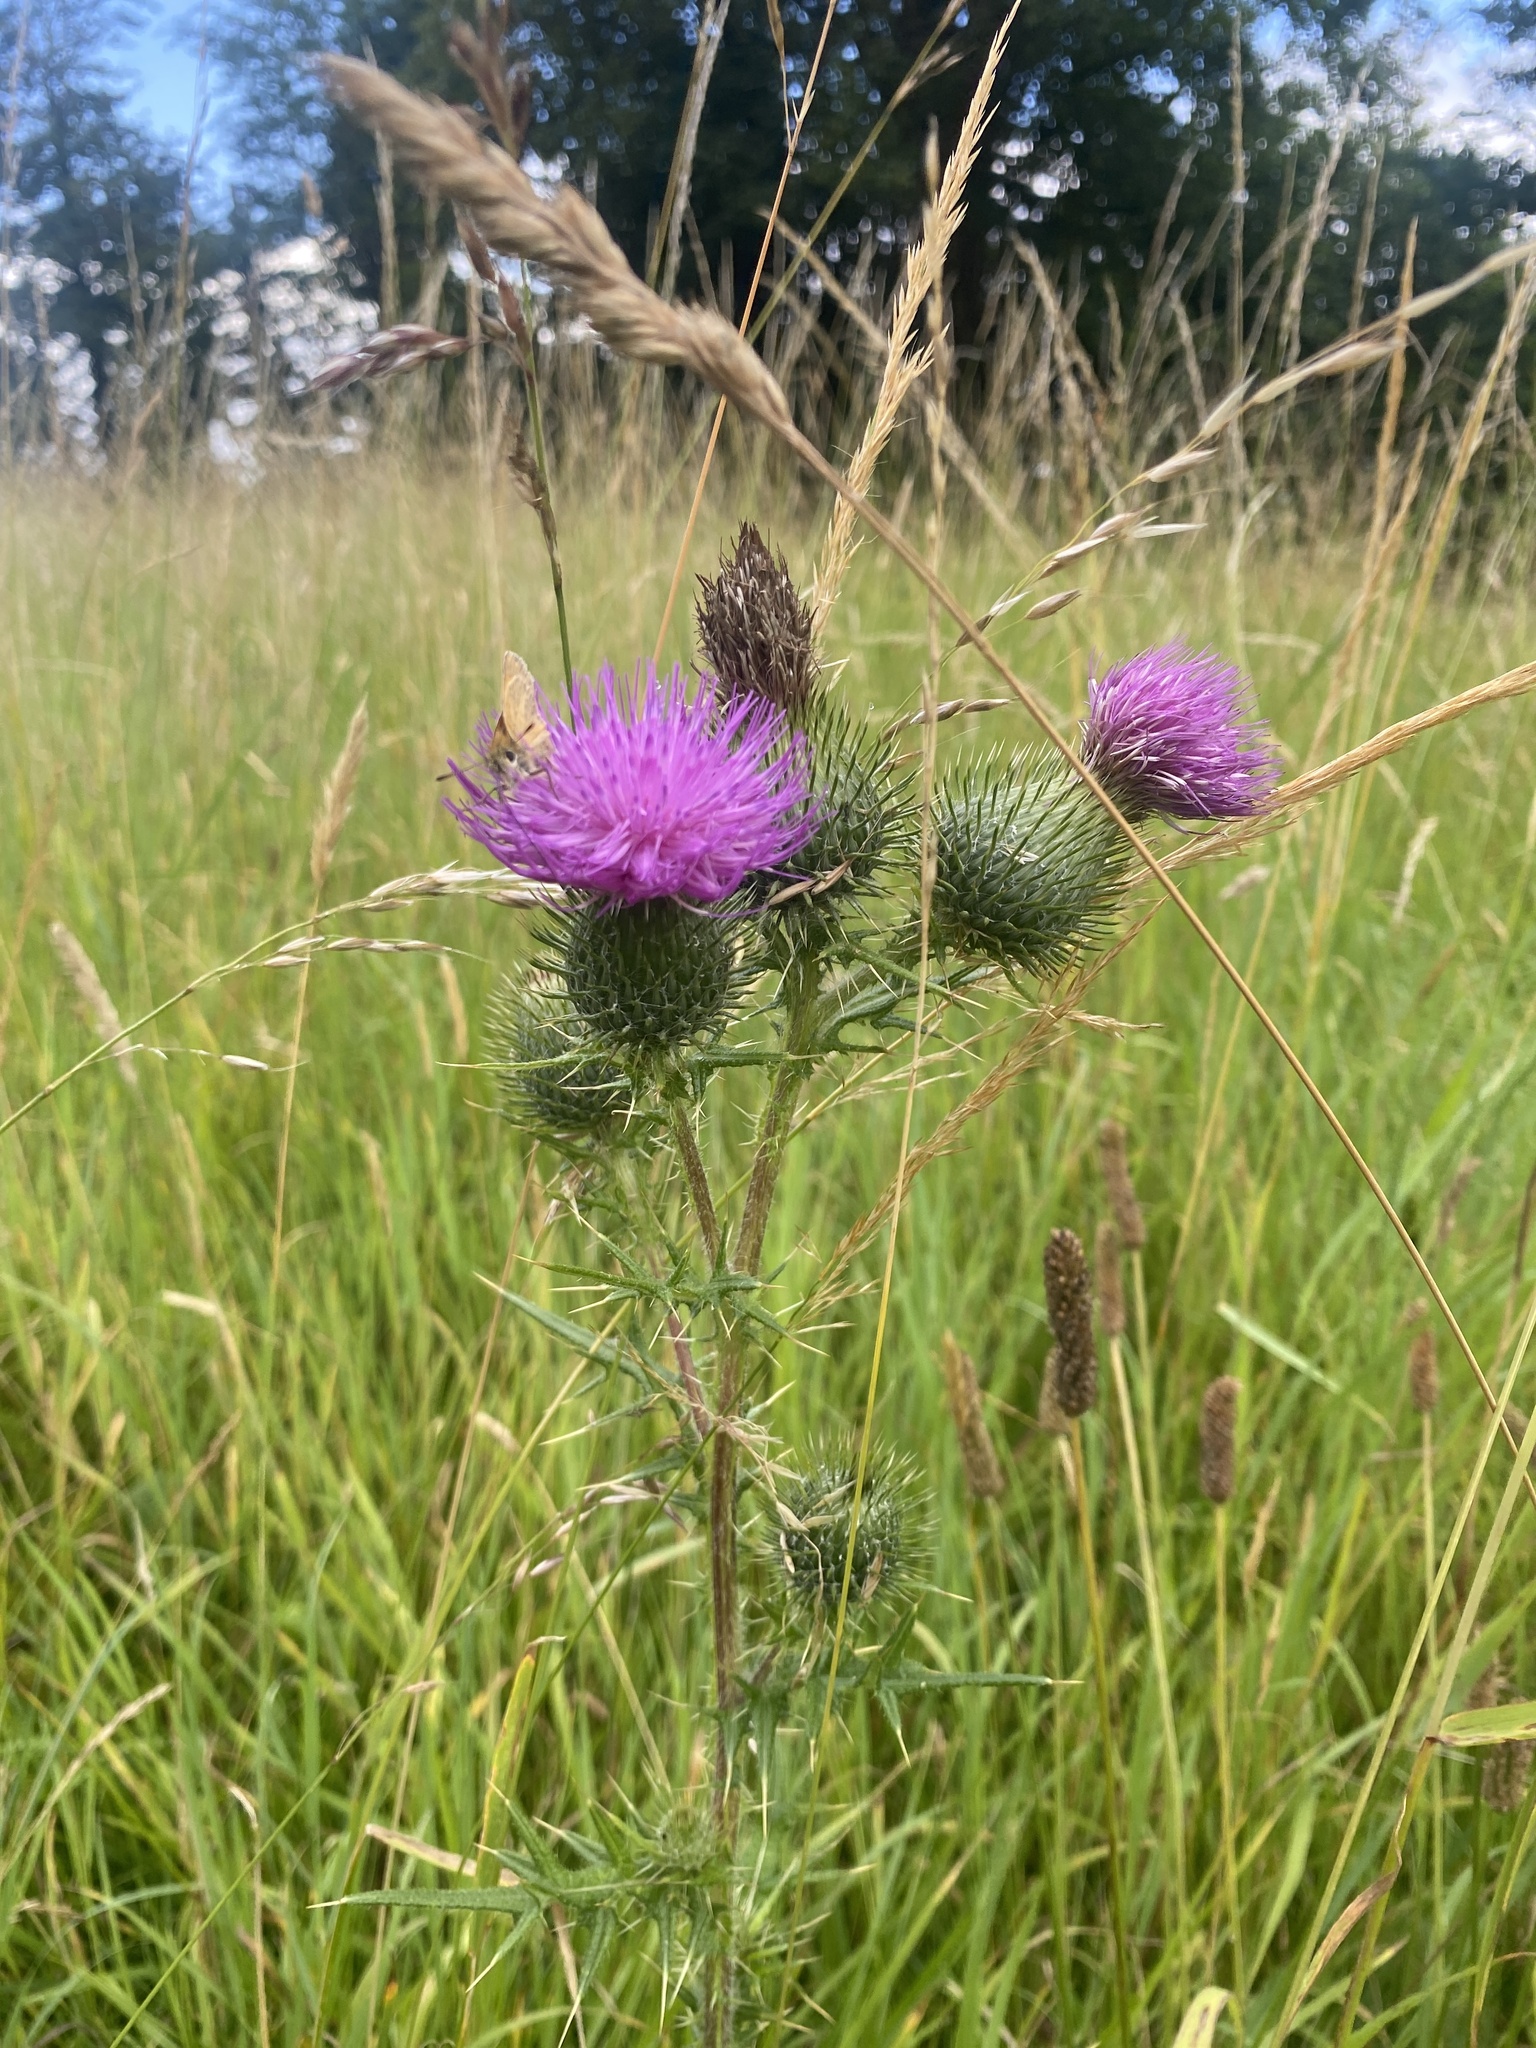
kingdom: Plantae
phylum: Tracheophyta
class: Magnoliopsida
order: Asterales
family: Asteraceae
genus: Cirsium
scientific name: Cirsium vulgare
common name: Bull thistle
